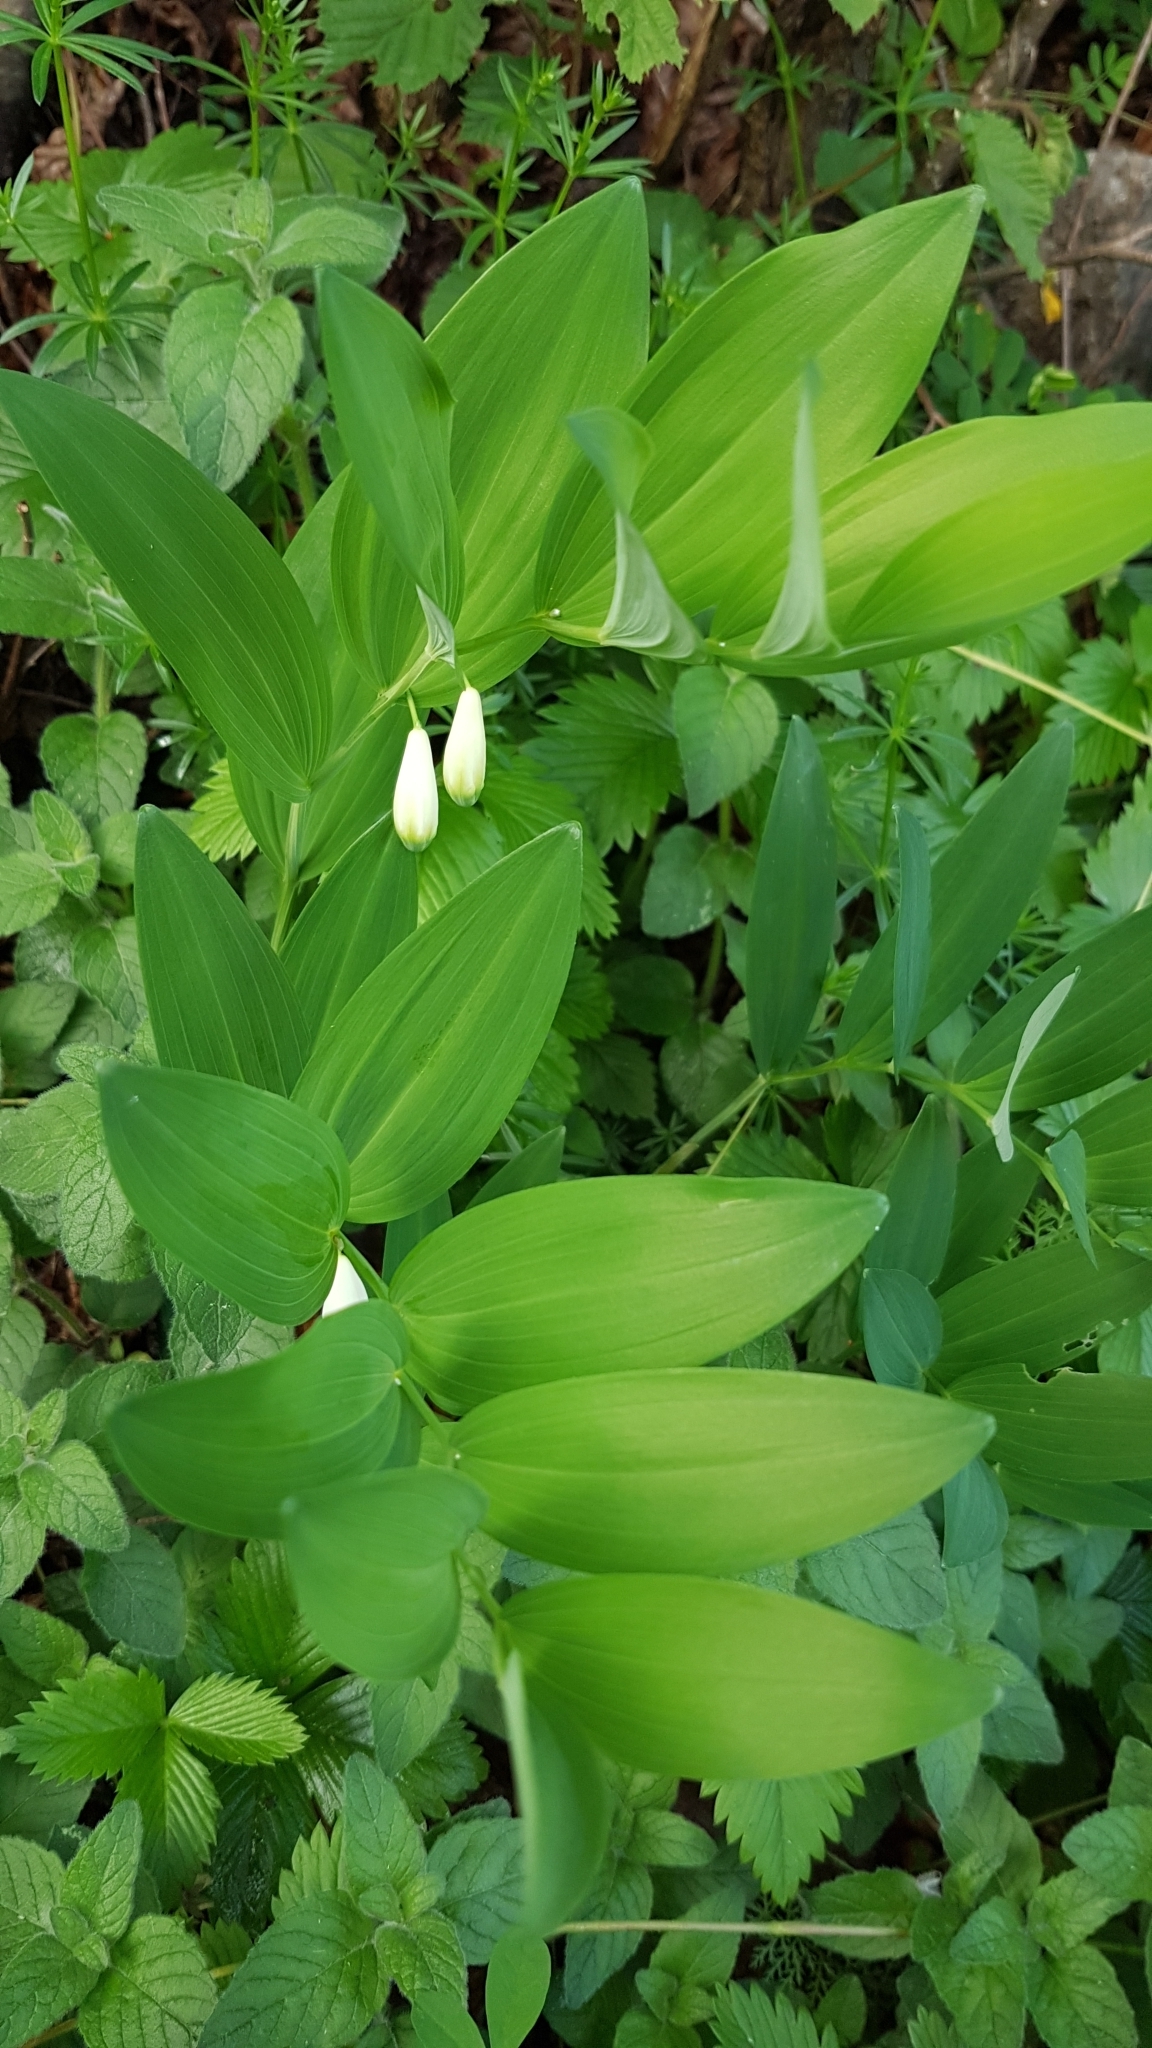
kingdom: Plantae
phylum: Tracheophyta
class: Liliopsida
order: Asparagales
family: Asparagaceae
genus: Polygonatum
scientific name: Polygonatum odoratum
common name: Angular solomon's-seal
